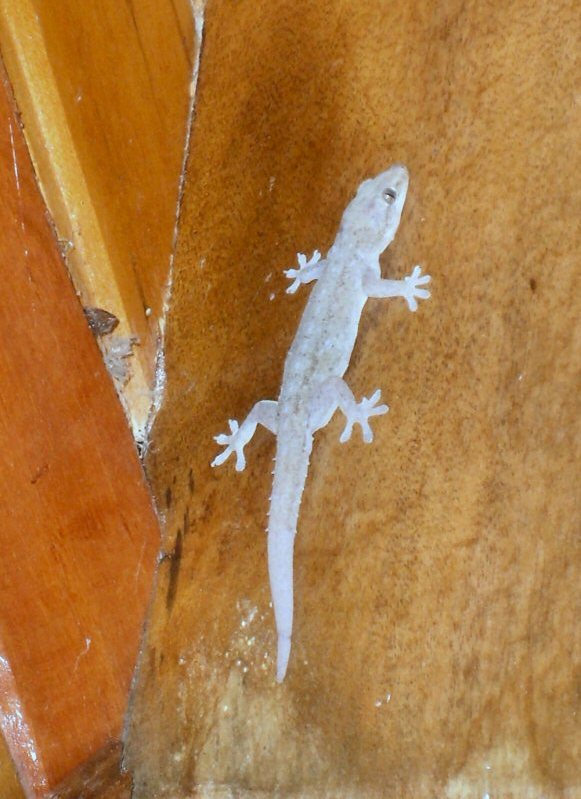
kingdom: Animalia
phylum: Chordata
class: Squamata
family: Gekkonidae
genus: Hemidactylus
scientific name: Hemidactylus frenatus
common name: Common house gecko
